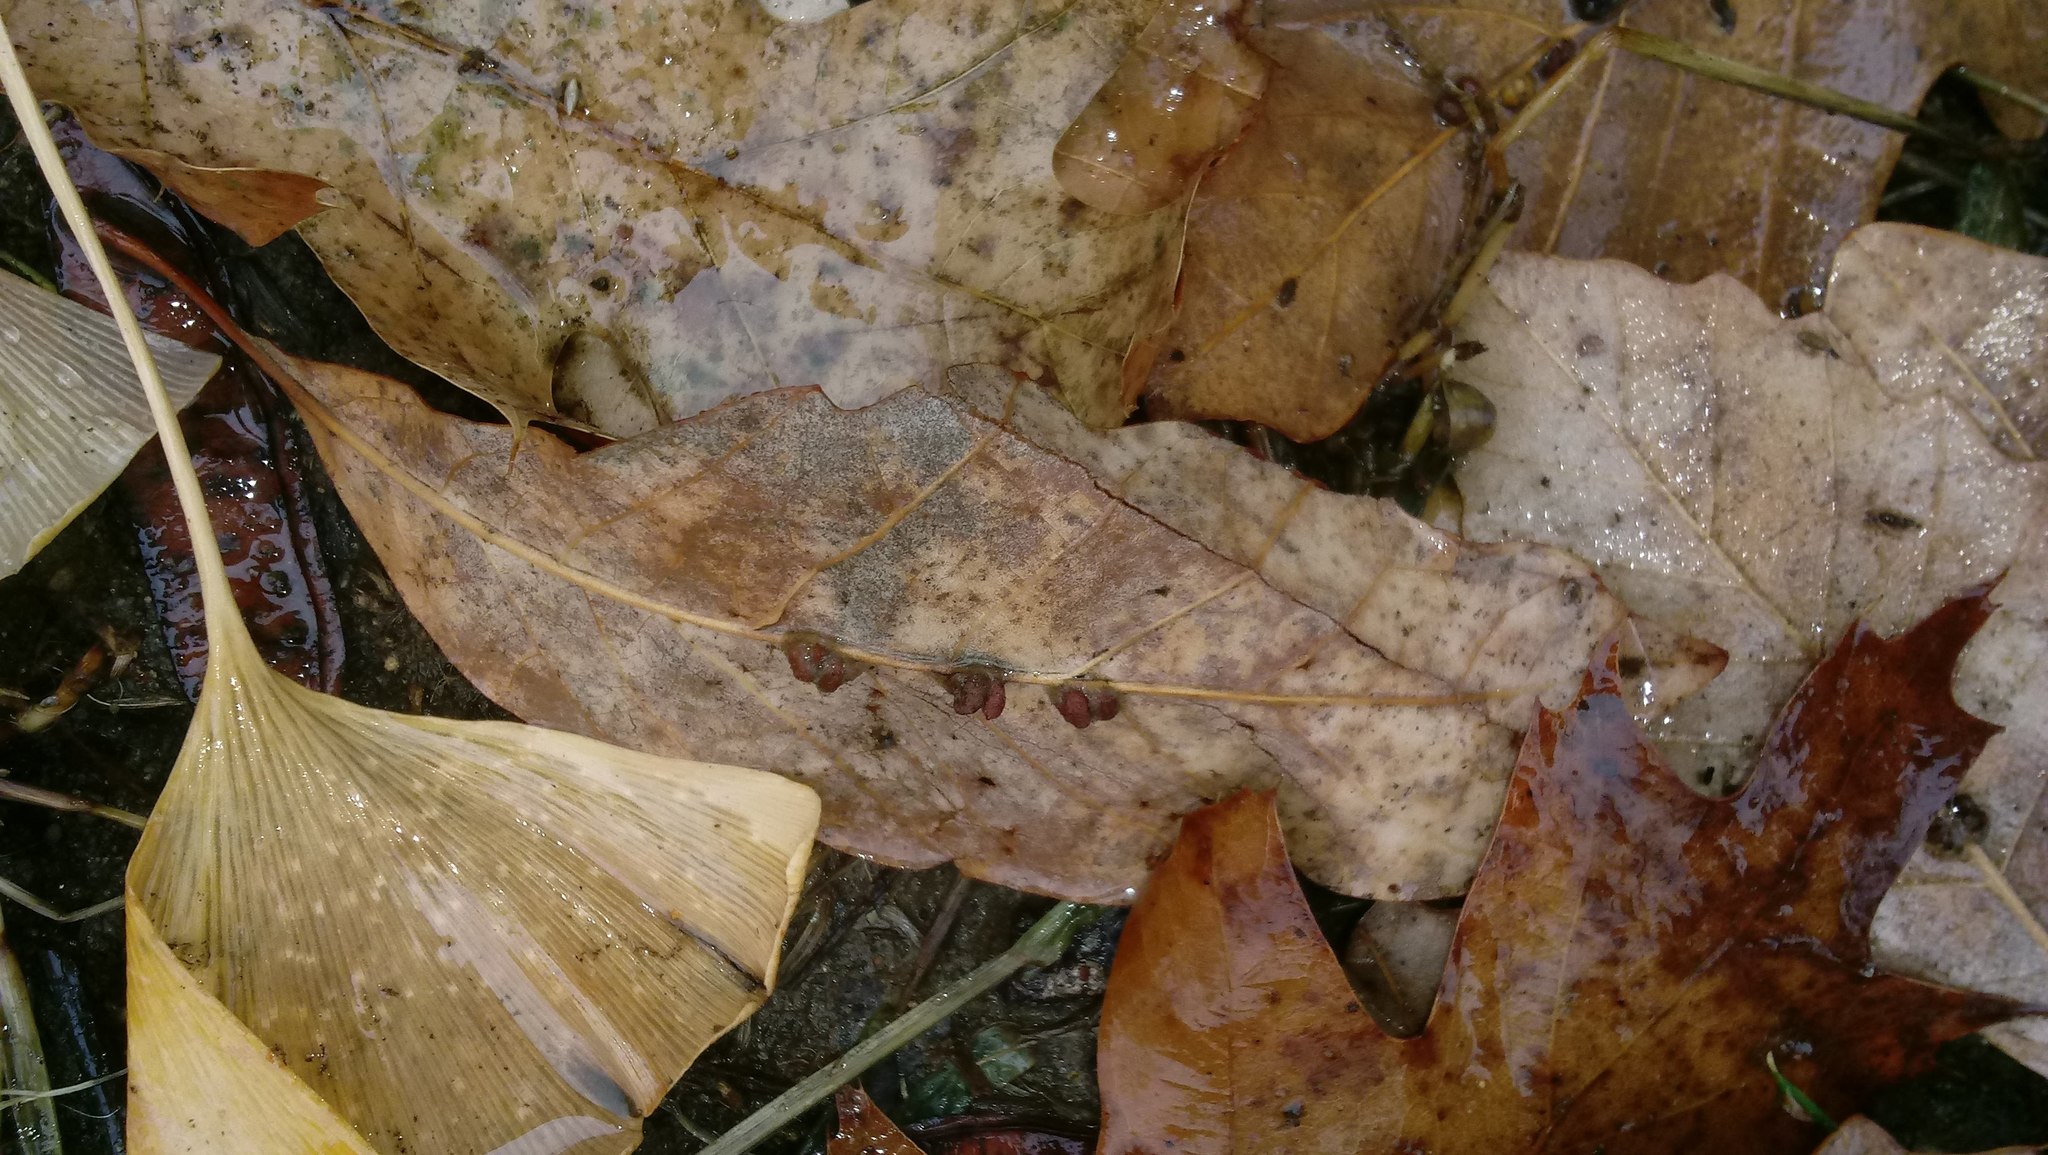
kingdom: Animalia
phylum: Arthropoda
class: Insecta
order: Hymenoptera
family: Cynipidae
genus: Andricus
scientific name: Andricus Druon ignotum
